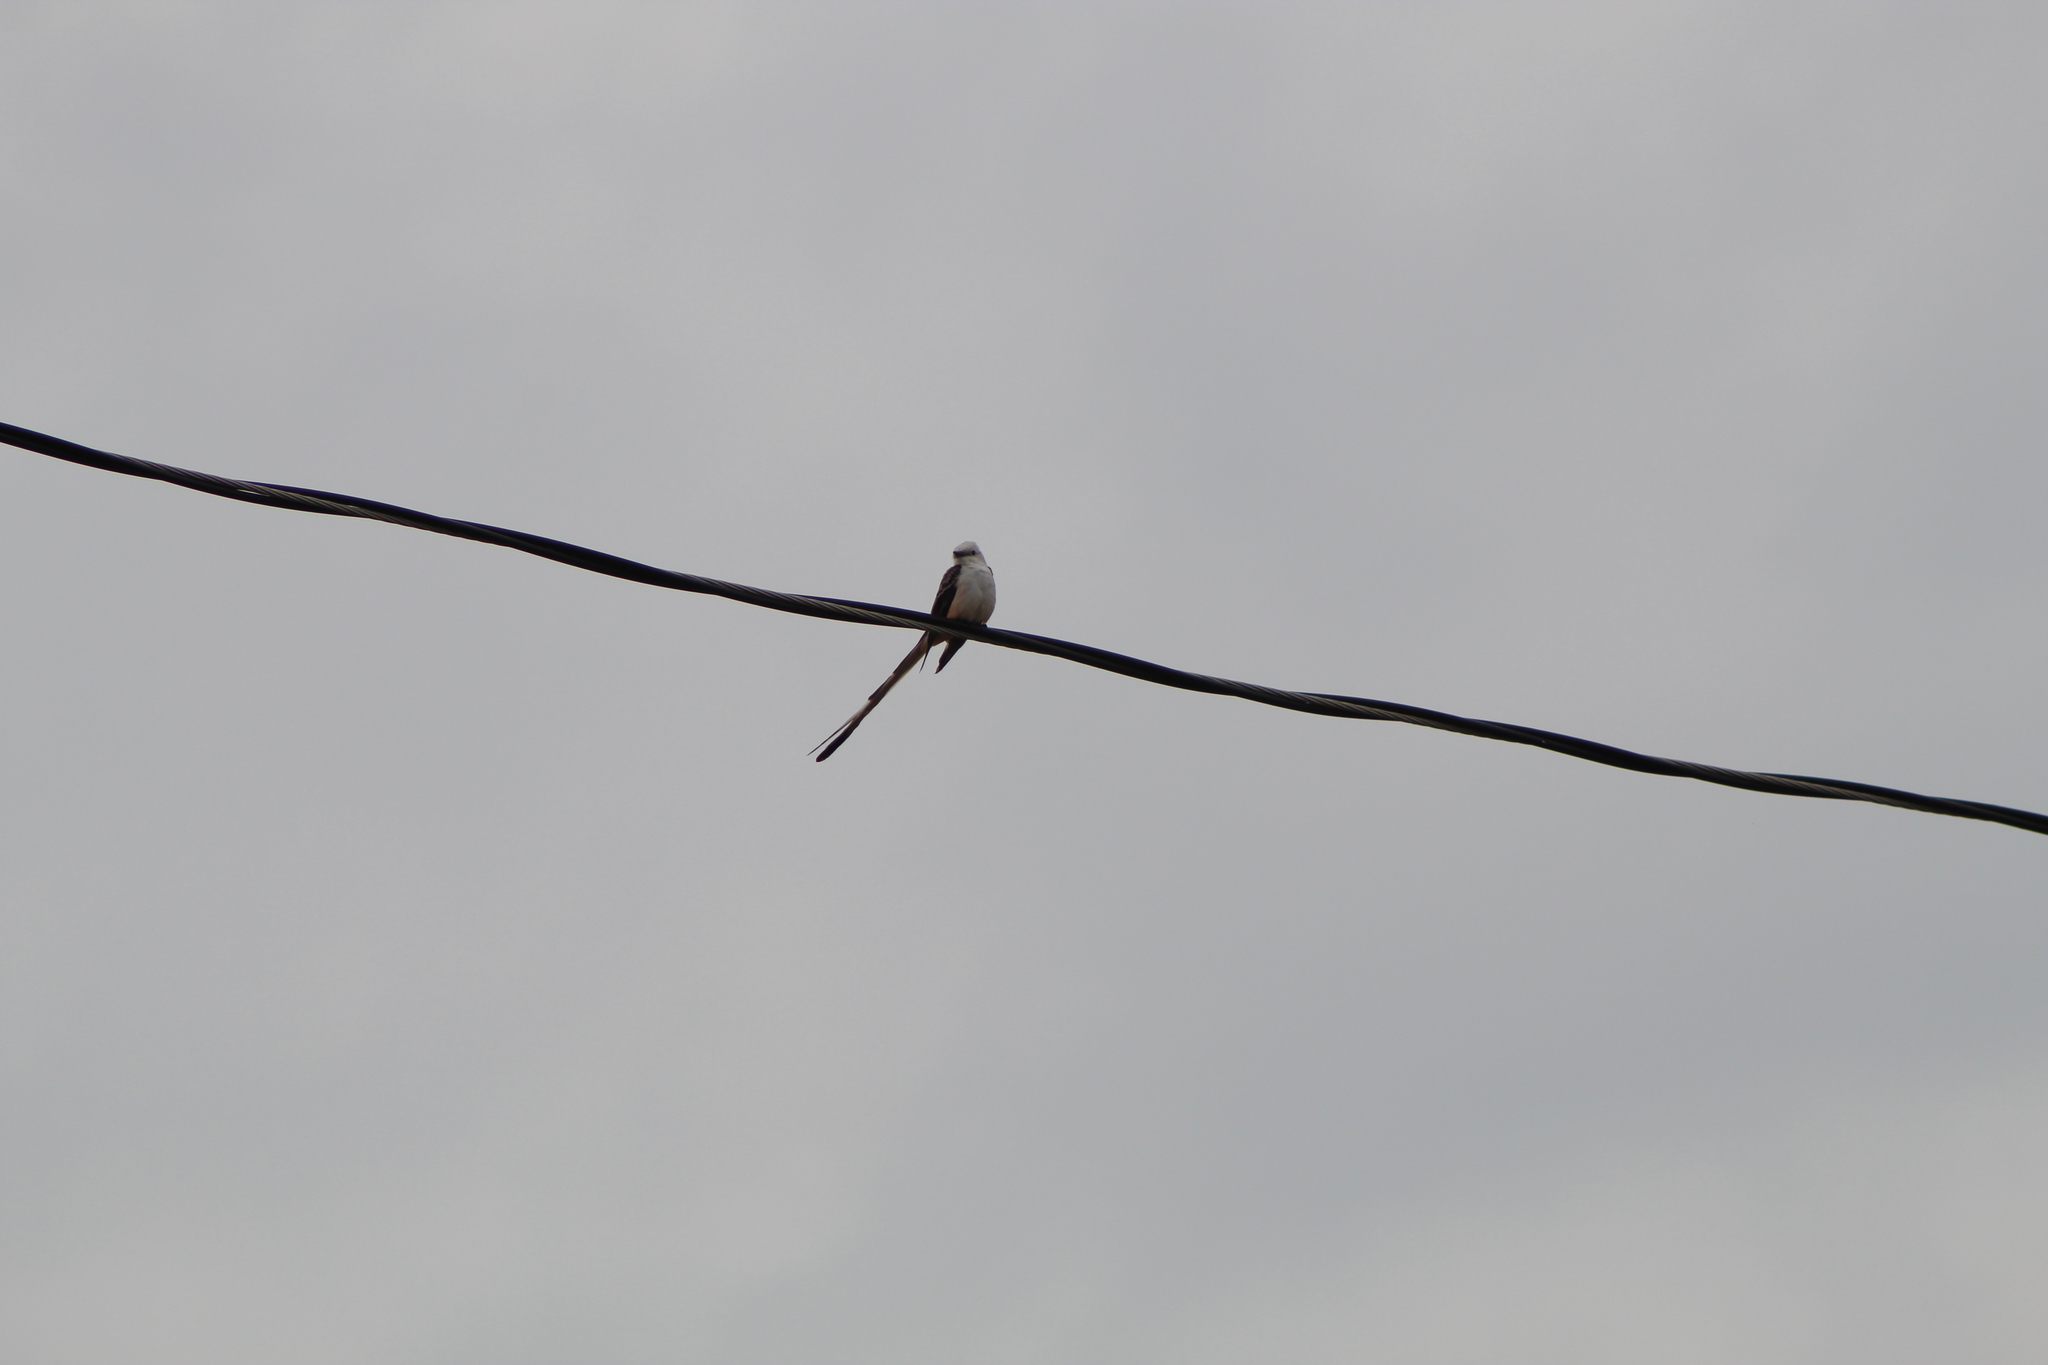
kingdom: Animalia
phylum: Chordata
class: Aves
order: Passeriformes
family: Tyrannidae
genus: Tyrannus
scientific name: Tyrannus forficatus
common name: Scissor-tailed flycatcher
